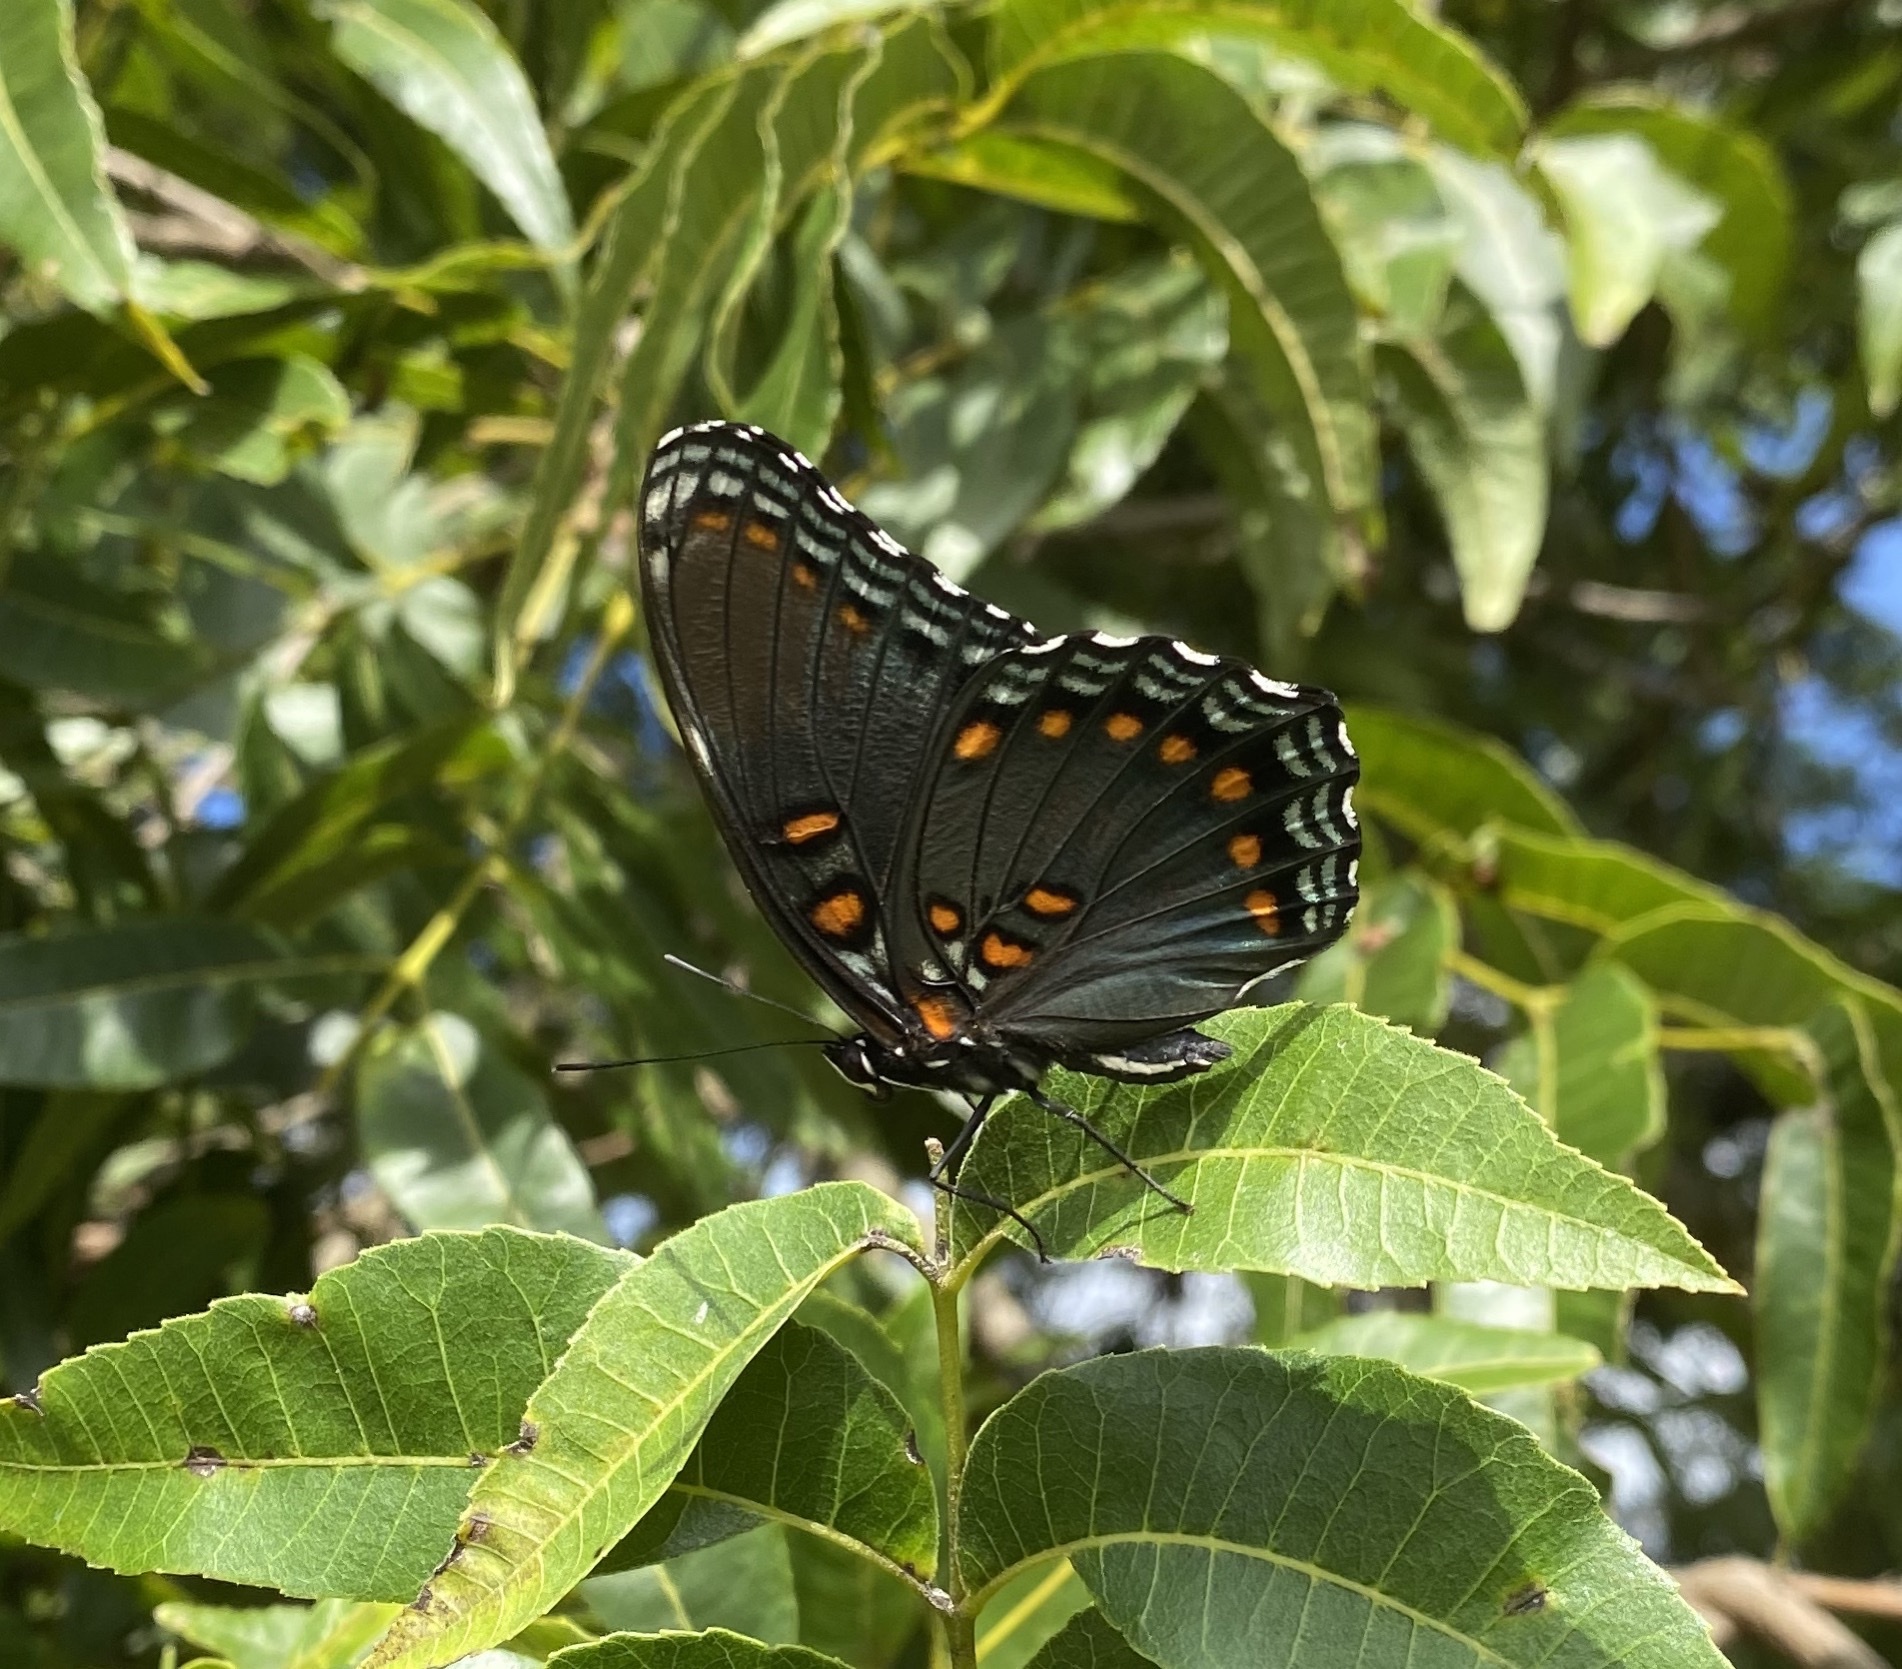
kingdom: Animalia
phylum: Arthropoda
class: Insecta
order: Lepidoptera
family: Nymphalidae
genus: Limenitis
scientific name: Limenitis arthemis
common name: Red-spotted admiral
